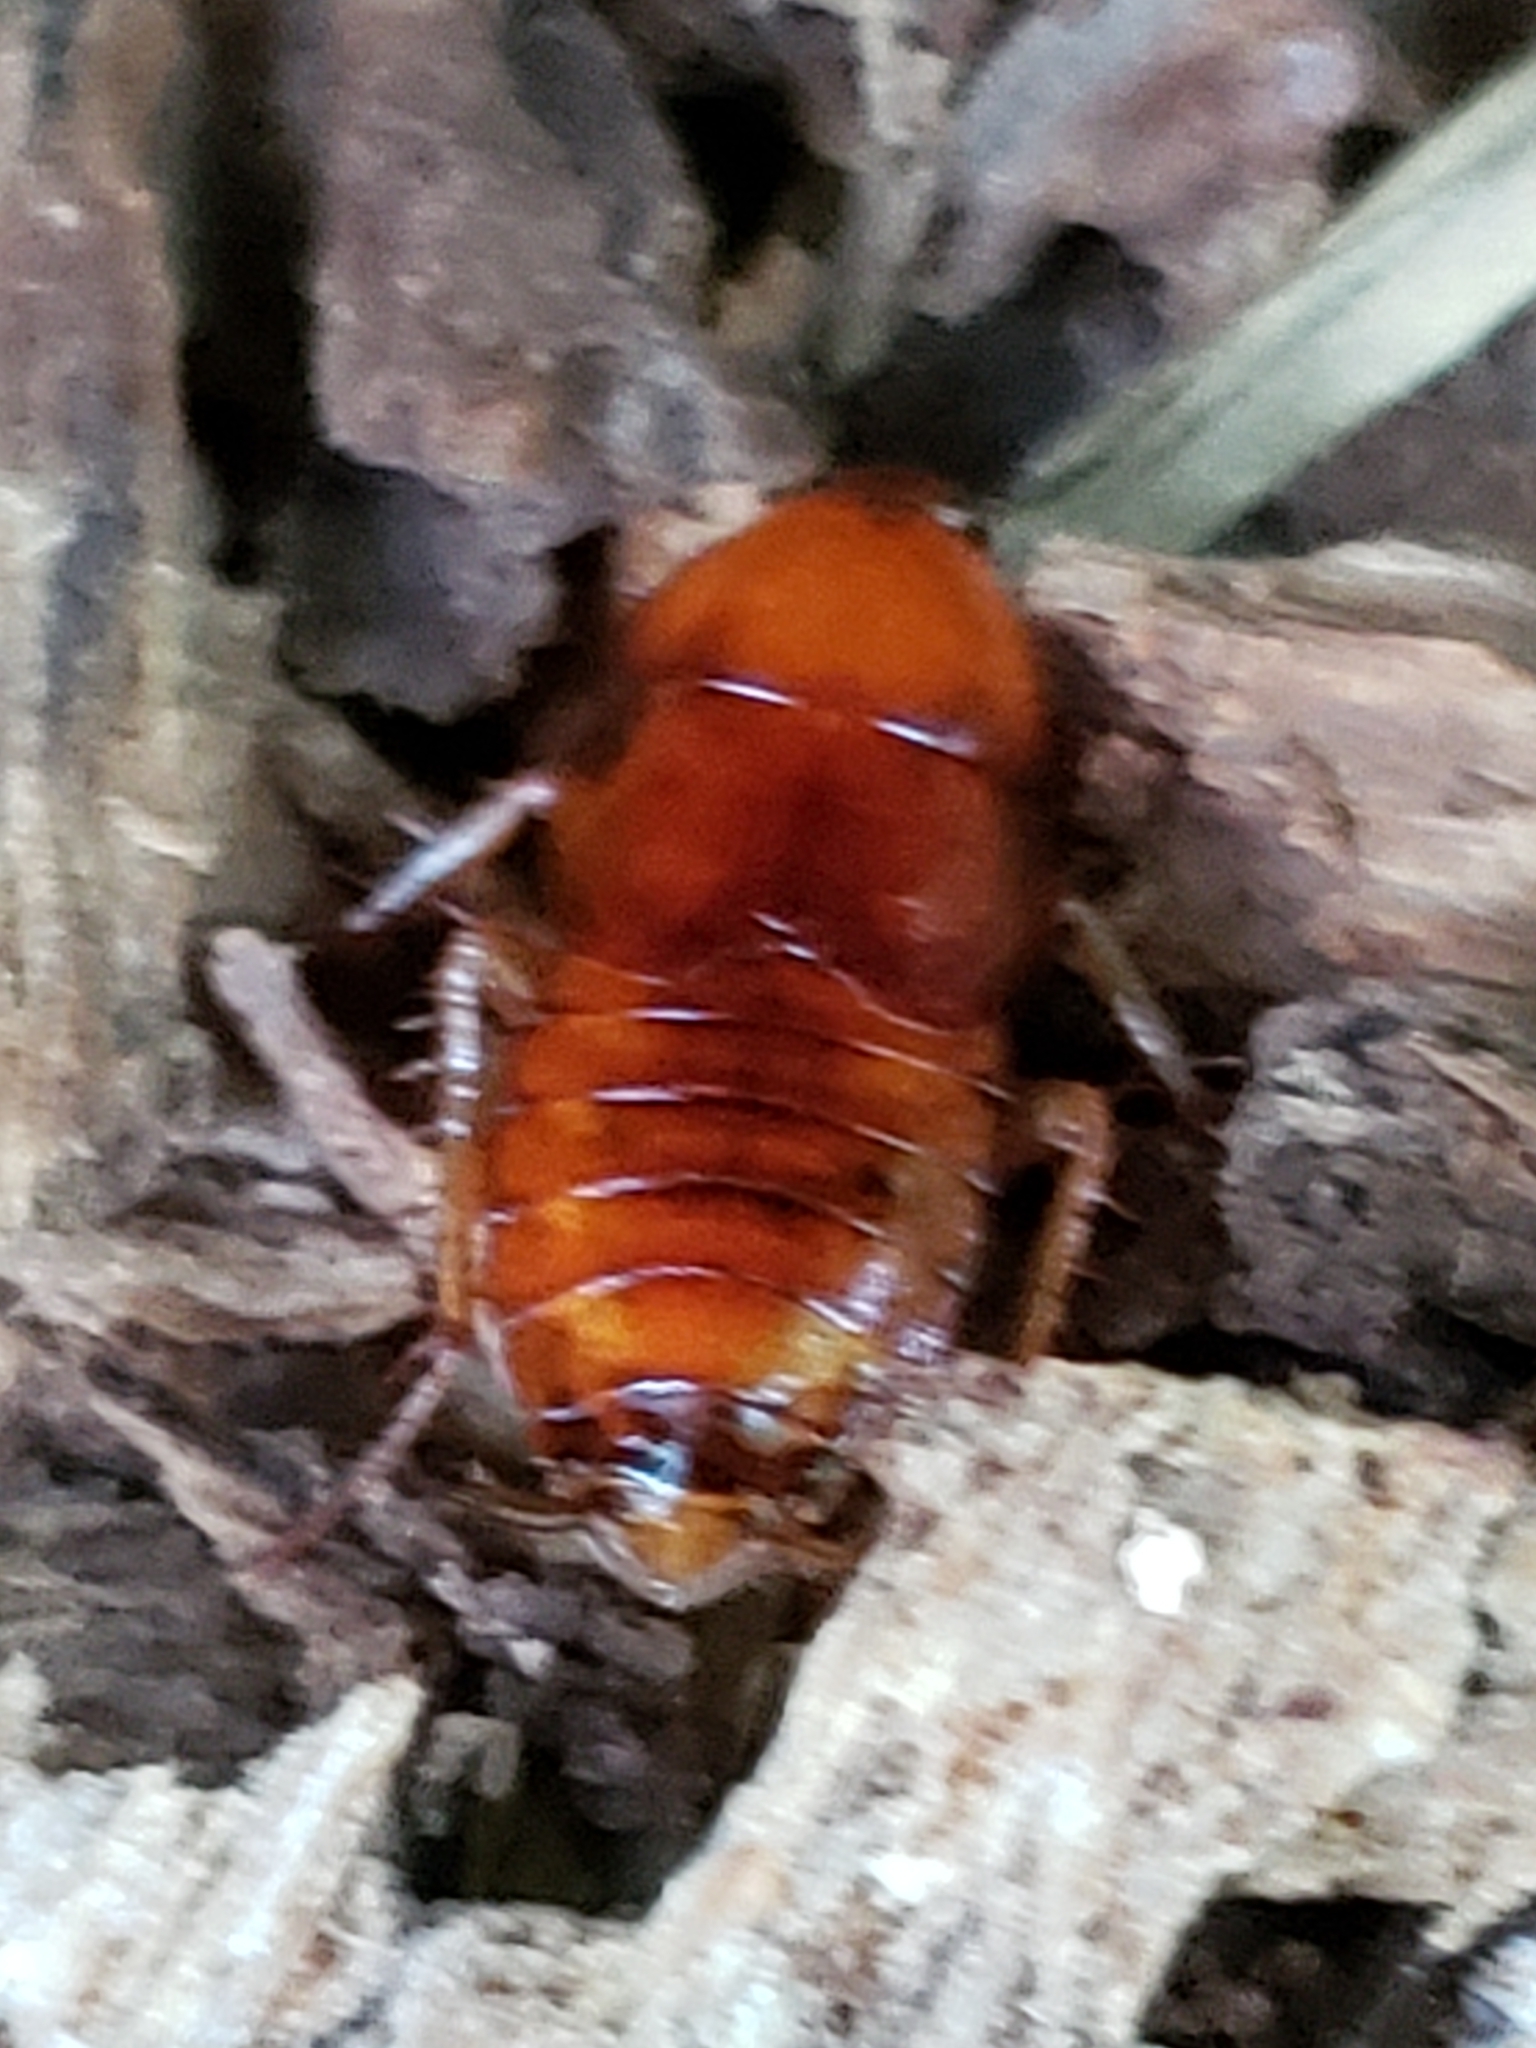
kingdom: Animalia
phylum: Arthropoda
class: Insecta
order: Blattodea
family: Ectobiidae
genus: Parcoblatta
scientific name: Parcoblatta virginica
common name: Virginia wood cockroach
